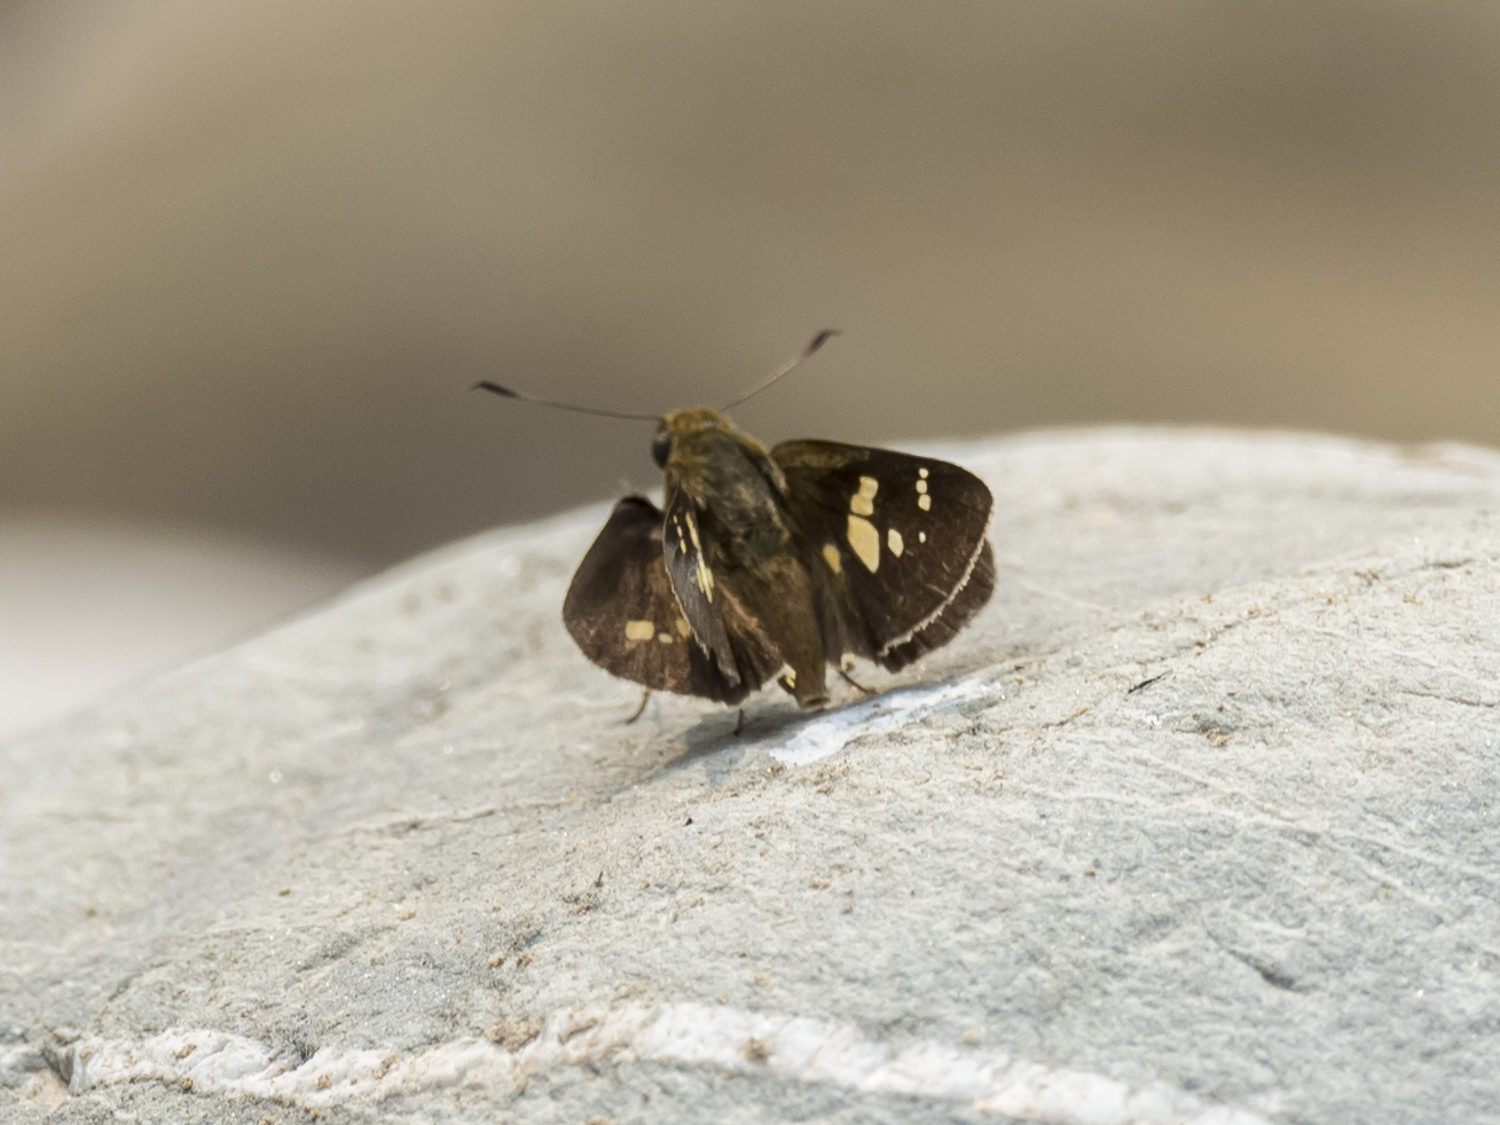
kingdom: Animalia
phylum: Arthropoda
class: Insecta
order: Lepidoptera
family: Hesperiidae
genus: Polytremis
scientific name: Polytremis discreta
